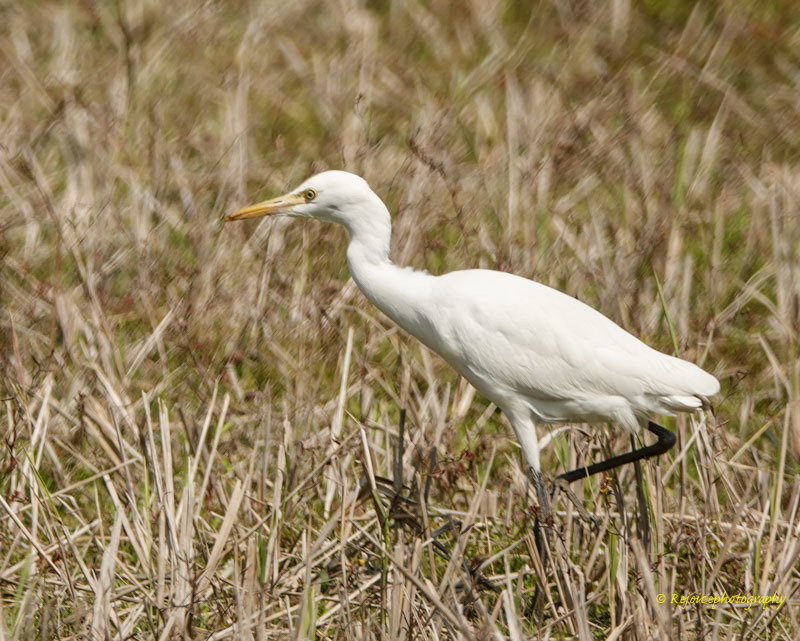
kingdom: Animalia
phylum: Chordata
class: Aves
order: Pelecaniformes
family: Ardeidae
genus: Bubulcus
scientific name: Bubulcus coromandus
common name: Eastern cattle egret
